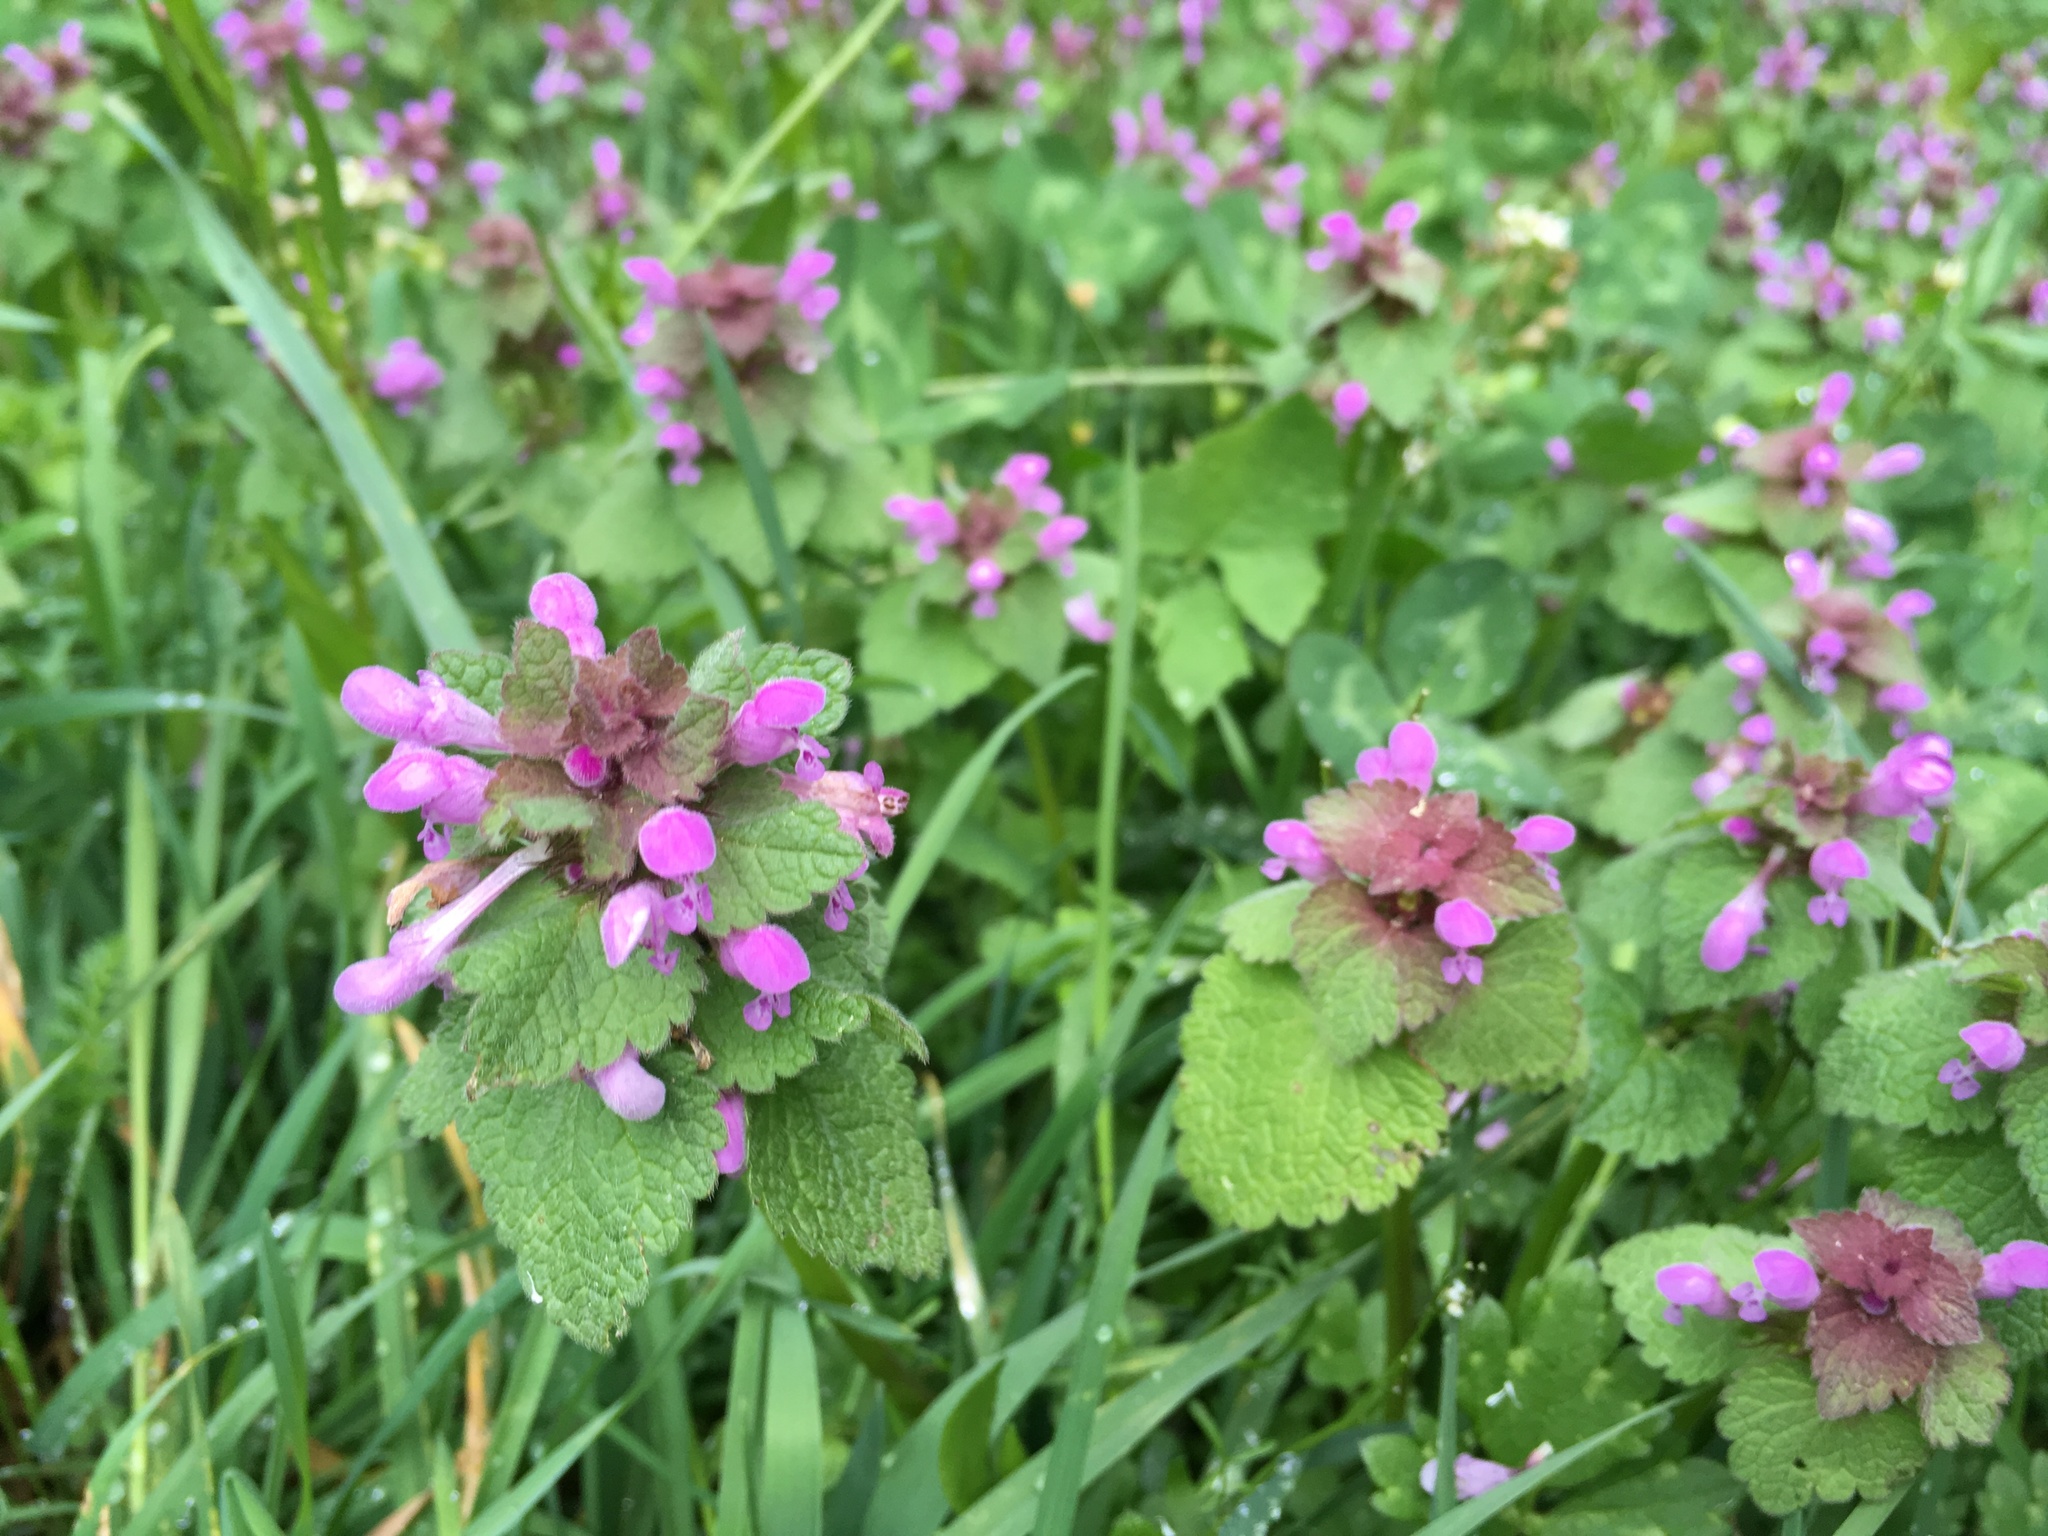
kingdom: Plantae
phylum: Tracheophyta
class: Magnoliopsida
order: Lamiales
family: Lamiaceae
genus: Lamium
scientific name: Lamium purpureum
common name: Red dead-nettle
